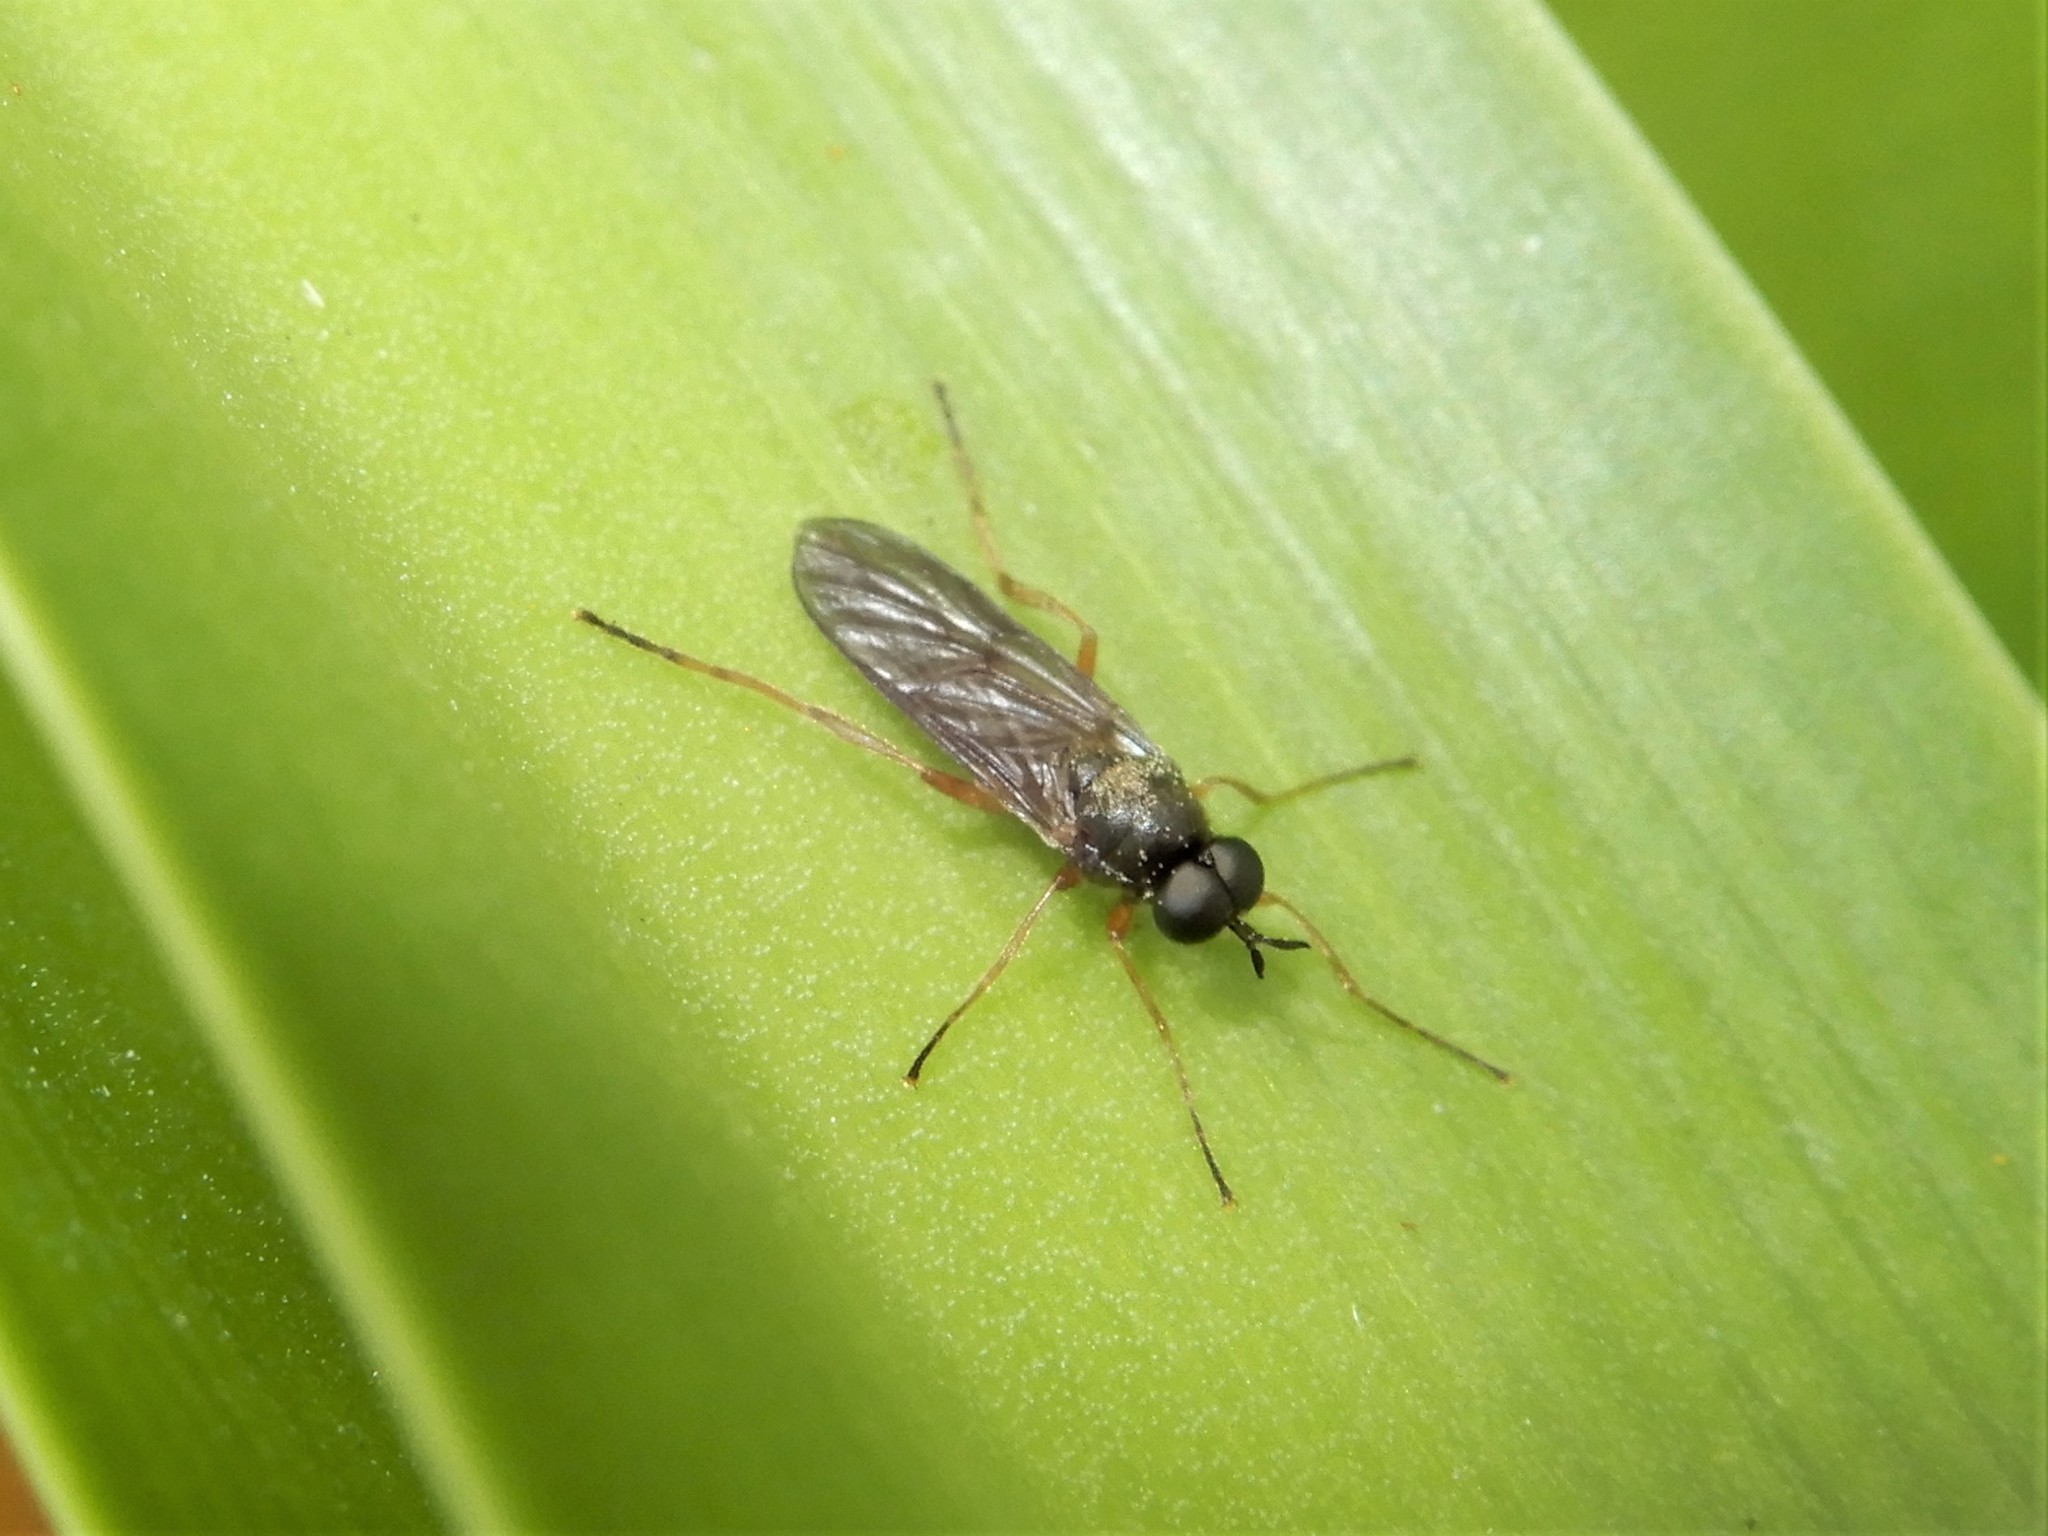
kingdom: Animalia
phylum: Arthropoda
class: Insecta
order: Diptera
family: Stratiomyidae
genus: Inopus
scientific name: Inopus rubriceps
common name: Soldier fly
